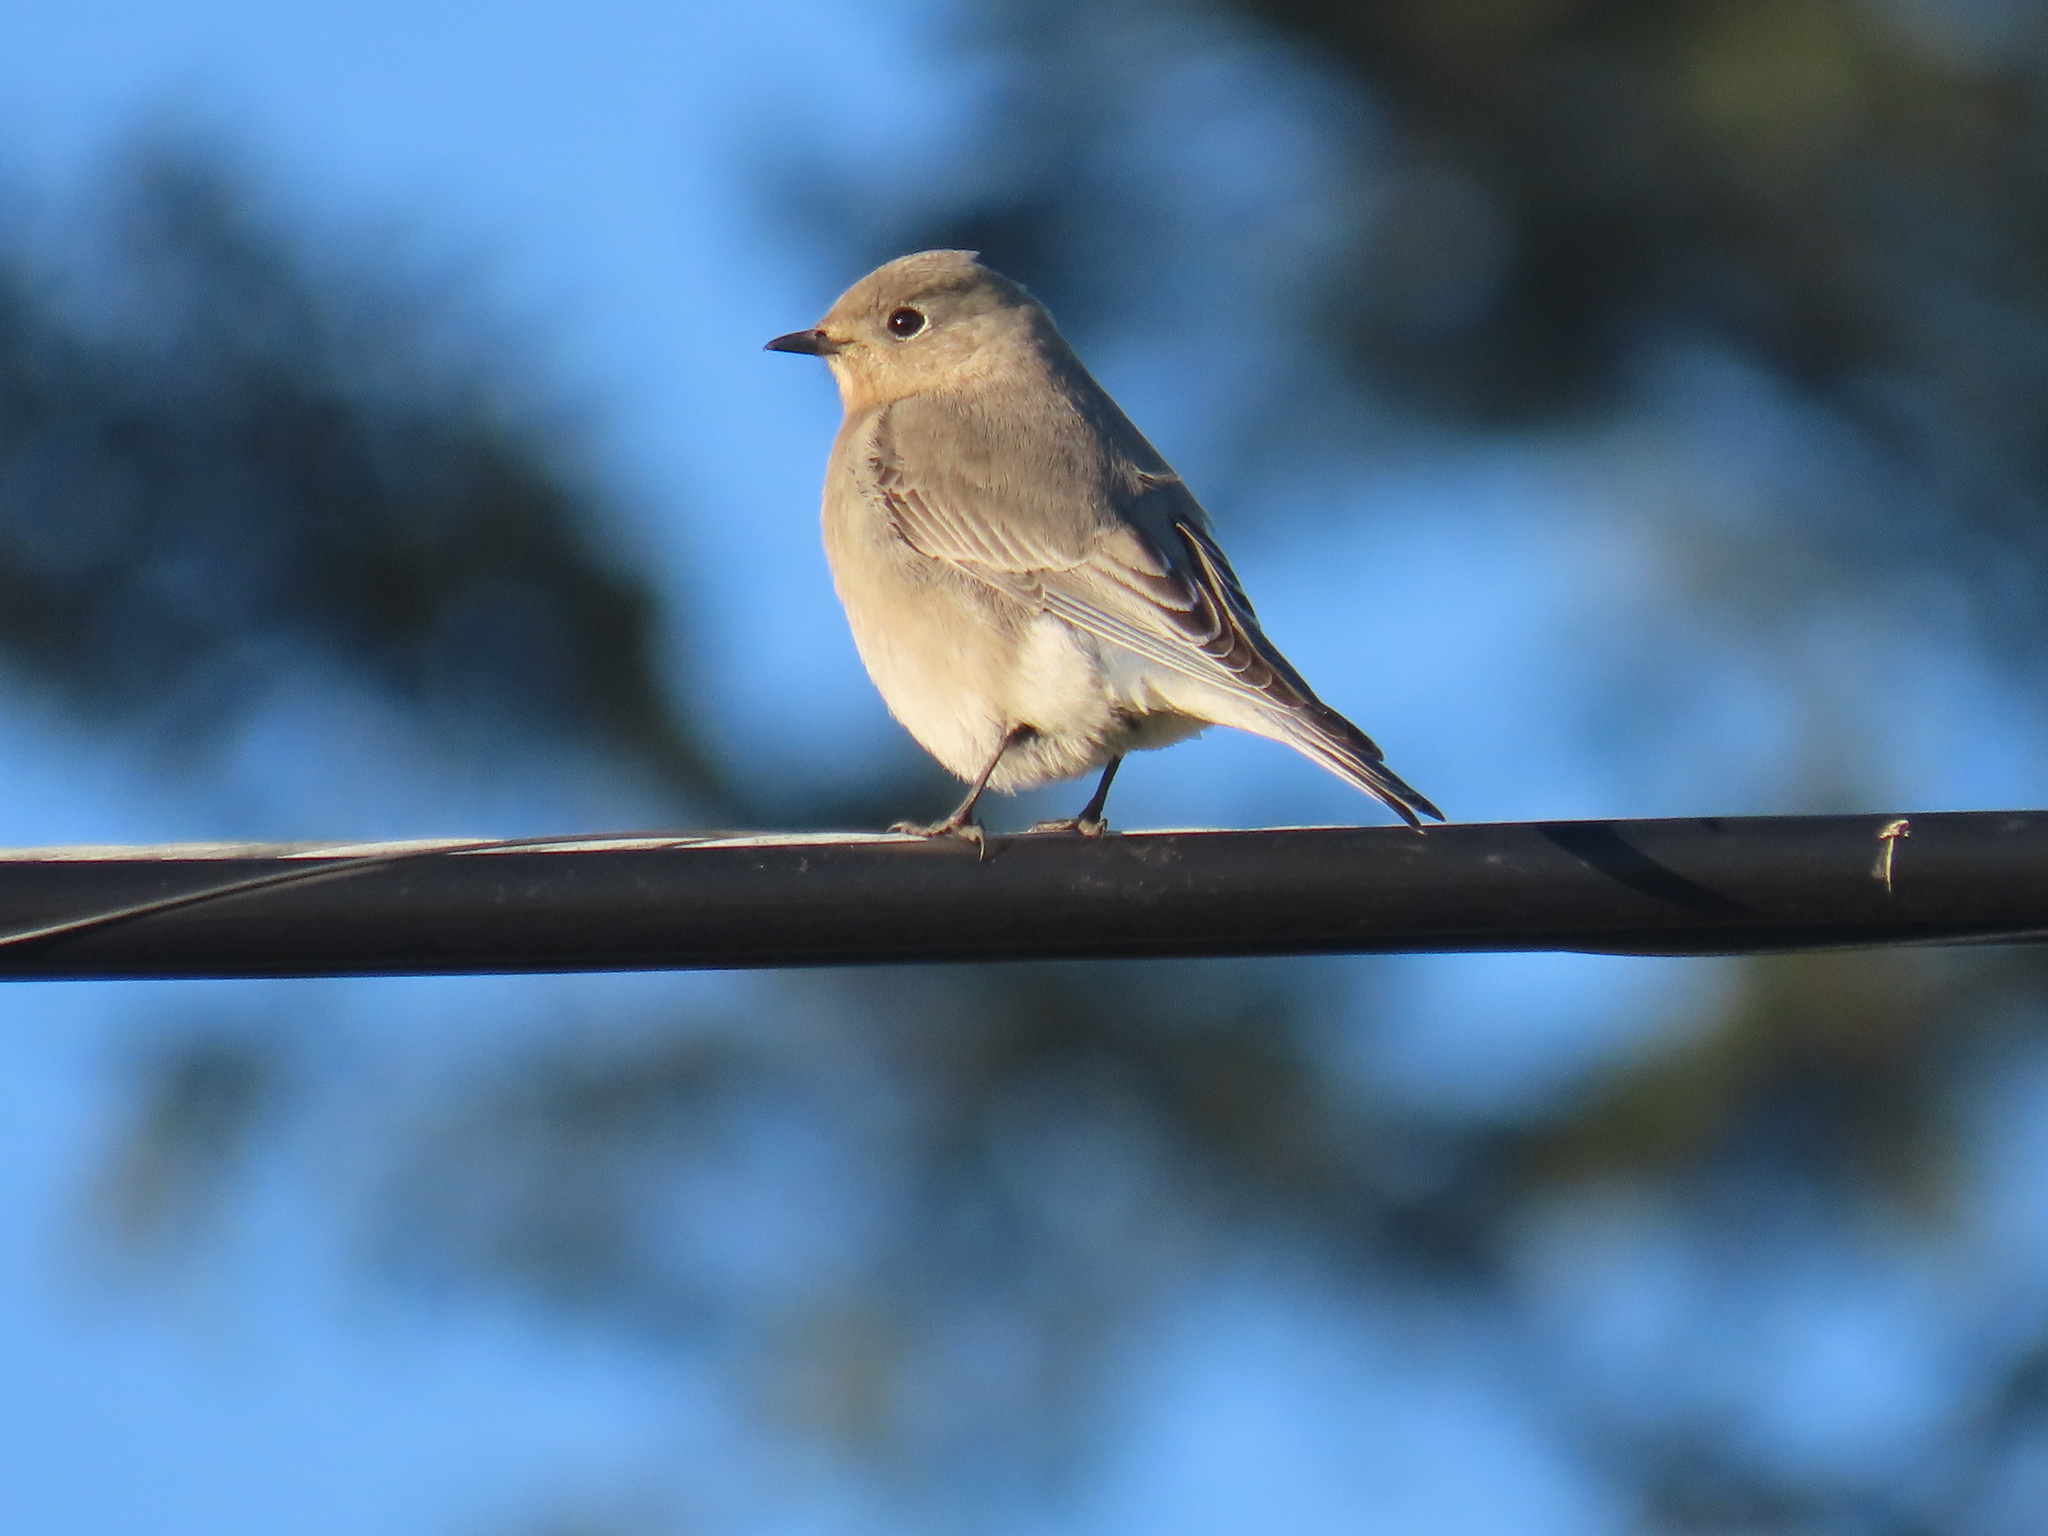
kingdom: Animalia
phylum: Chordata
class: Aves
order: Passeriformes
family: Turdidae
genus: Sialia
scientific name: Sialia currucoides
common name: Mountain bluebird
